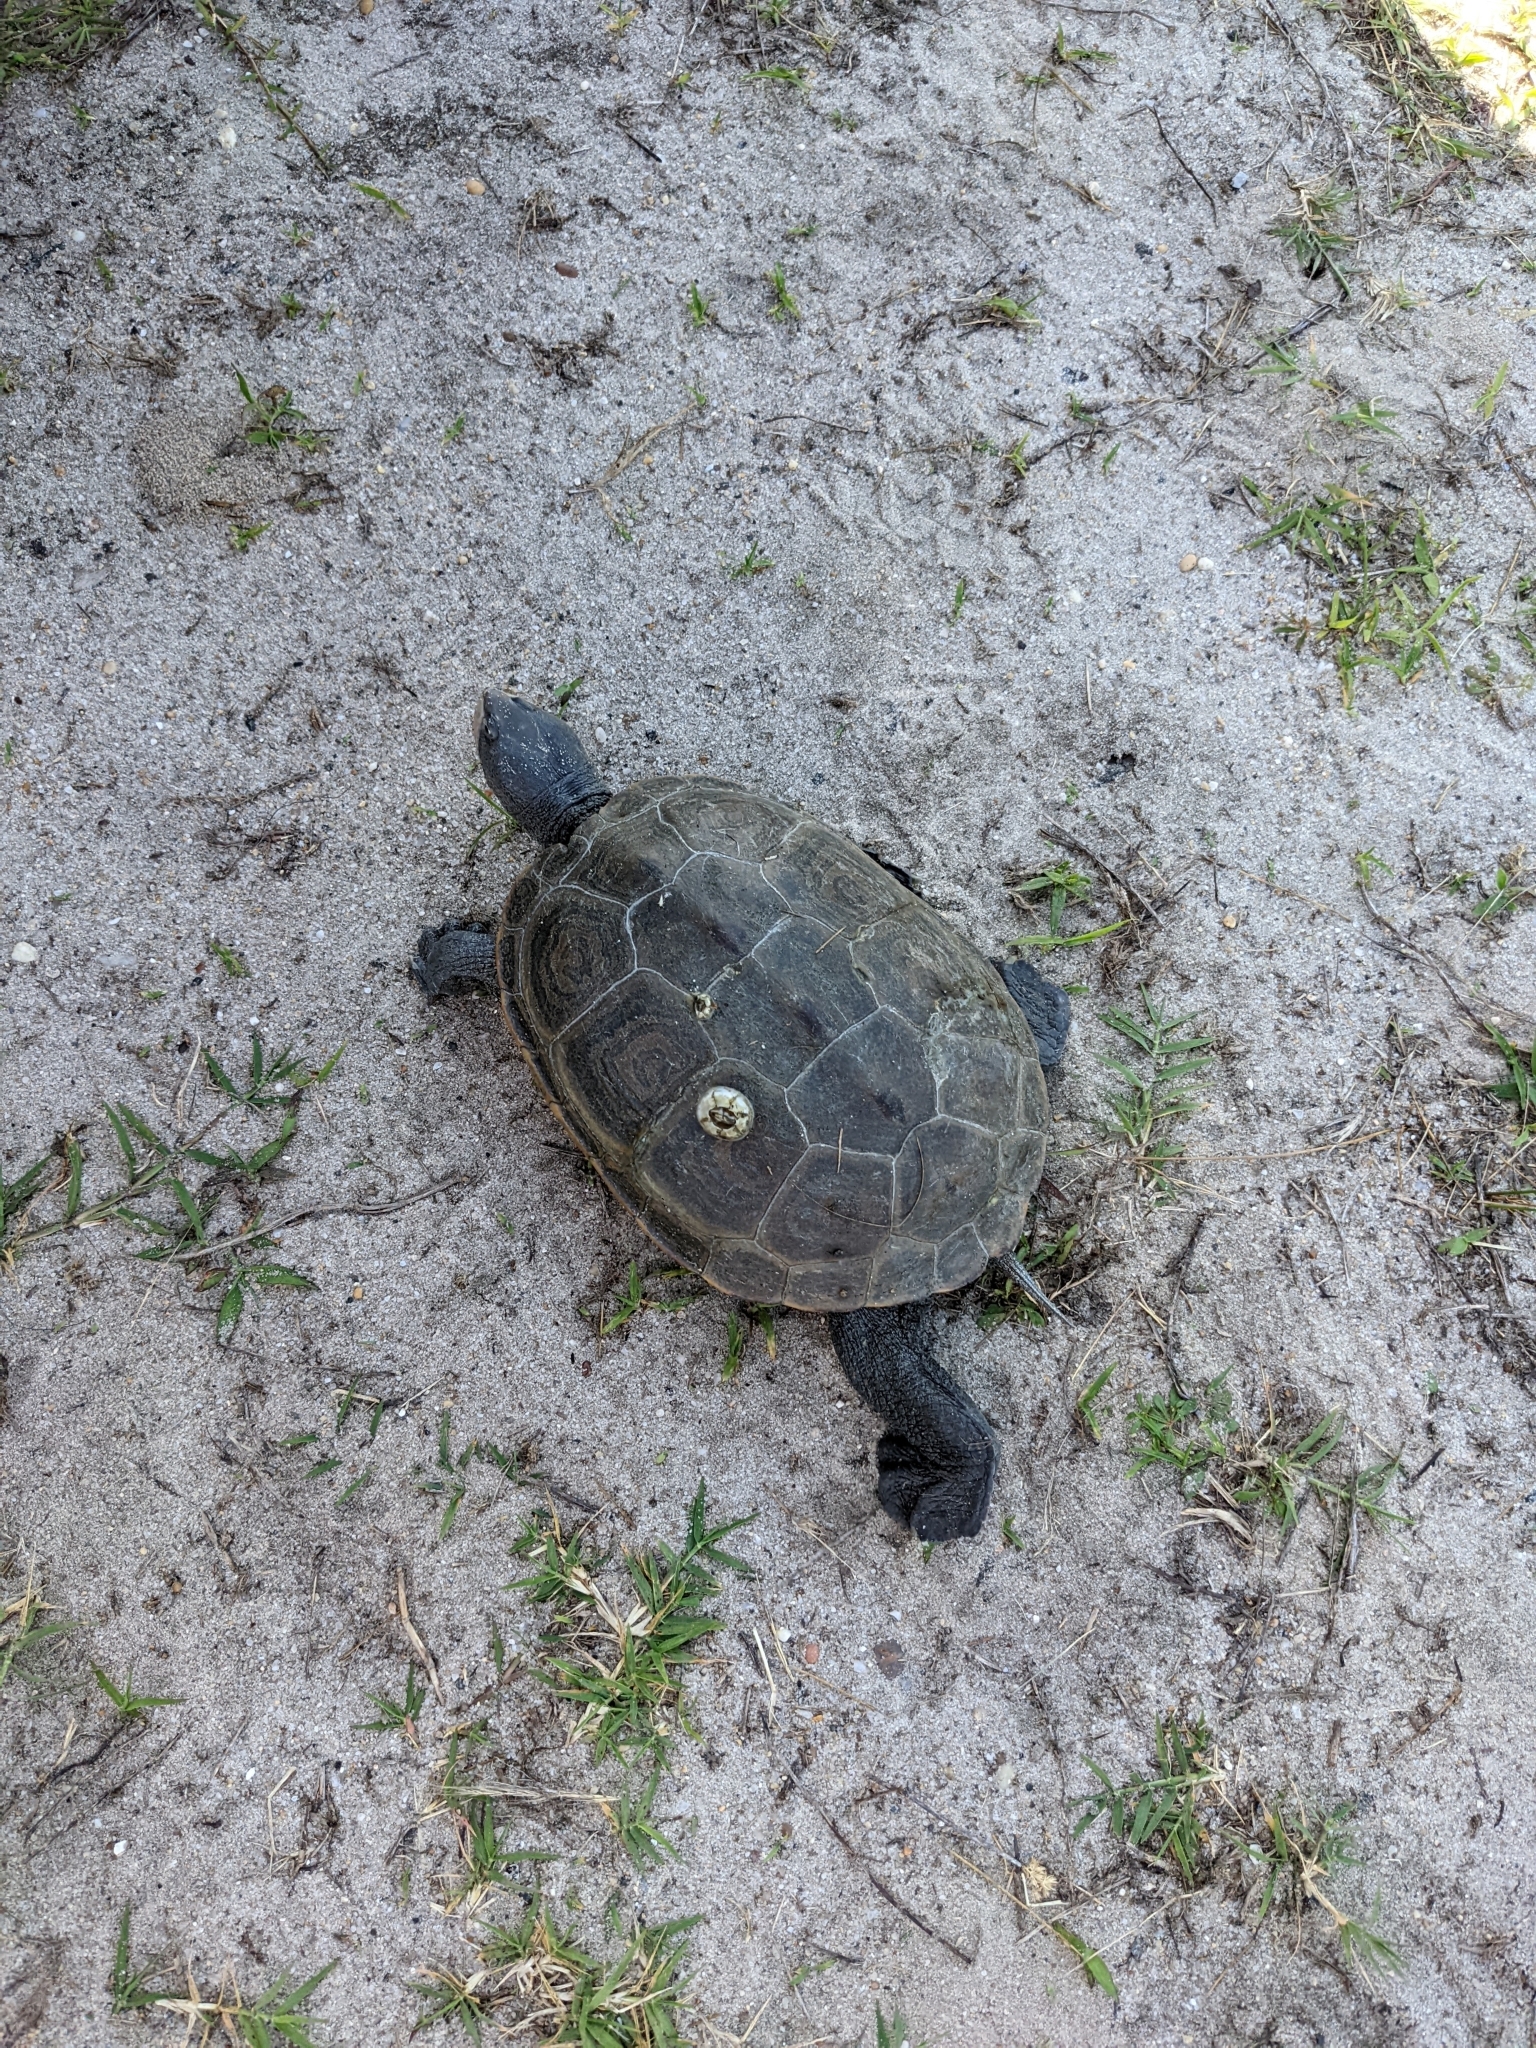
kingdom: Animalia
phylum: Chordata
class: Testudines
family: Emydidae
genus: Malaclemys
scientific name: Malaclemys terrapin
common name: Diamondback terrapin
